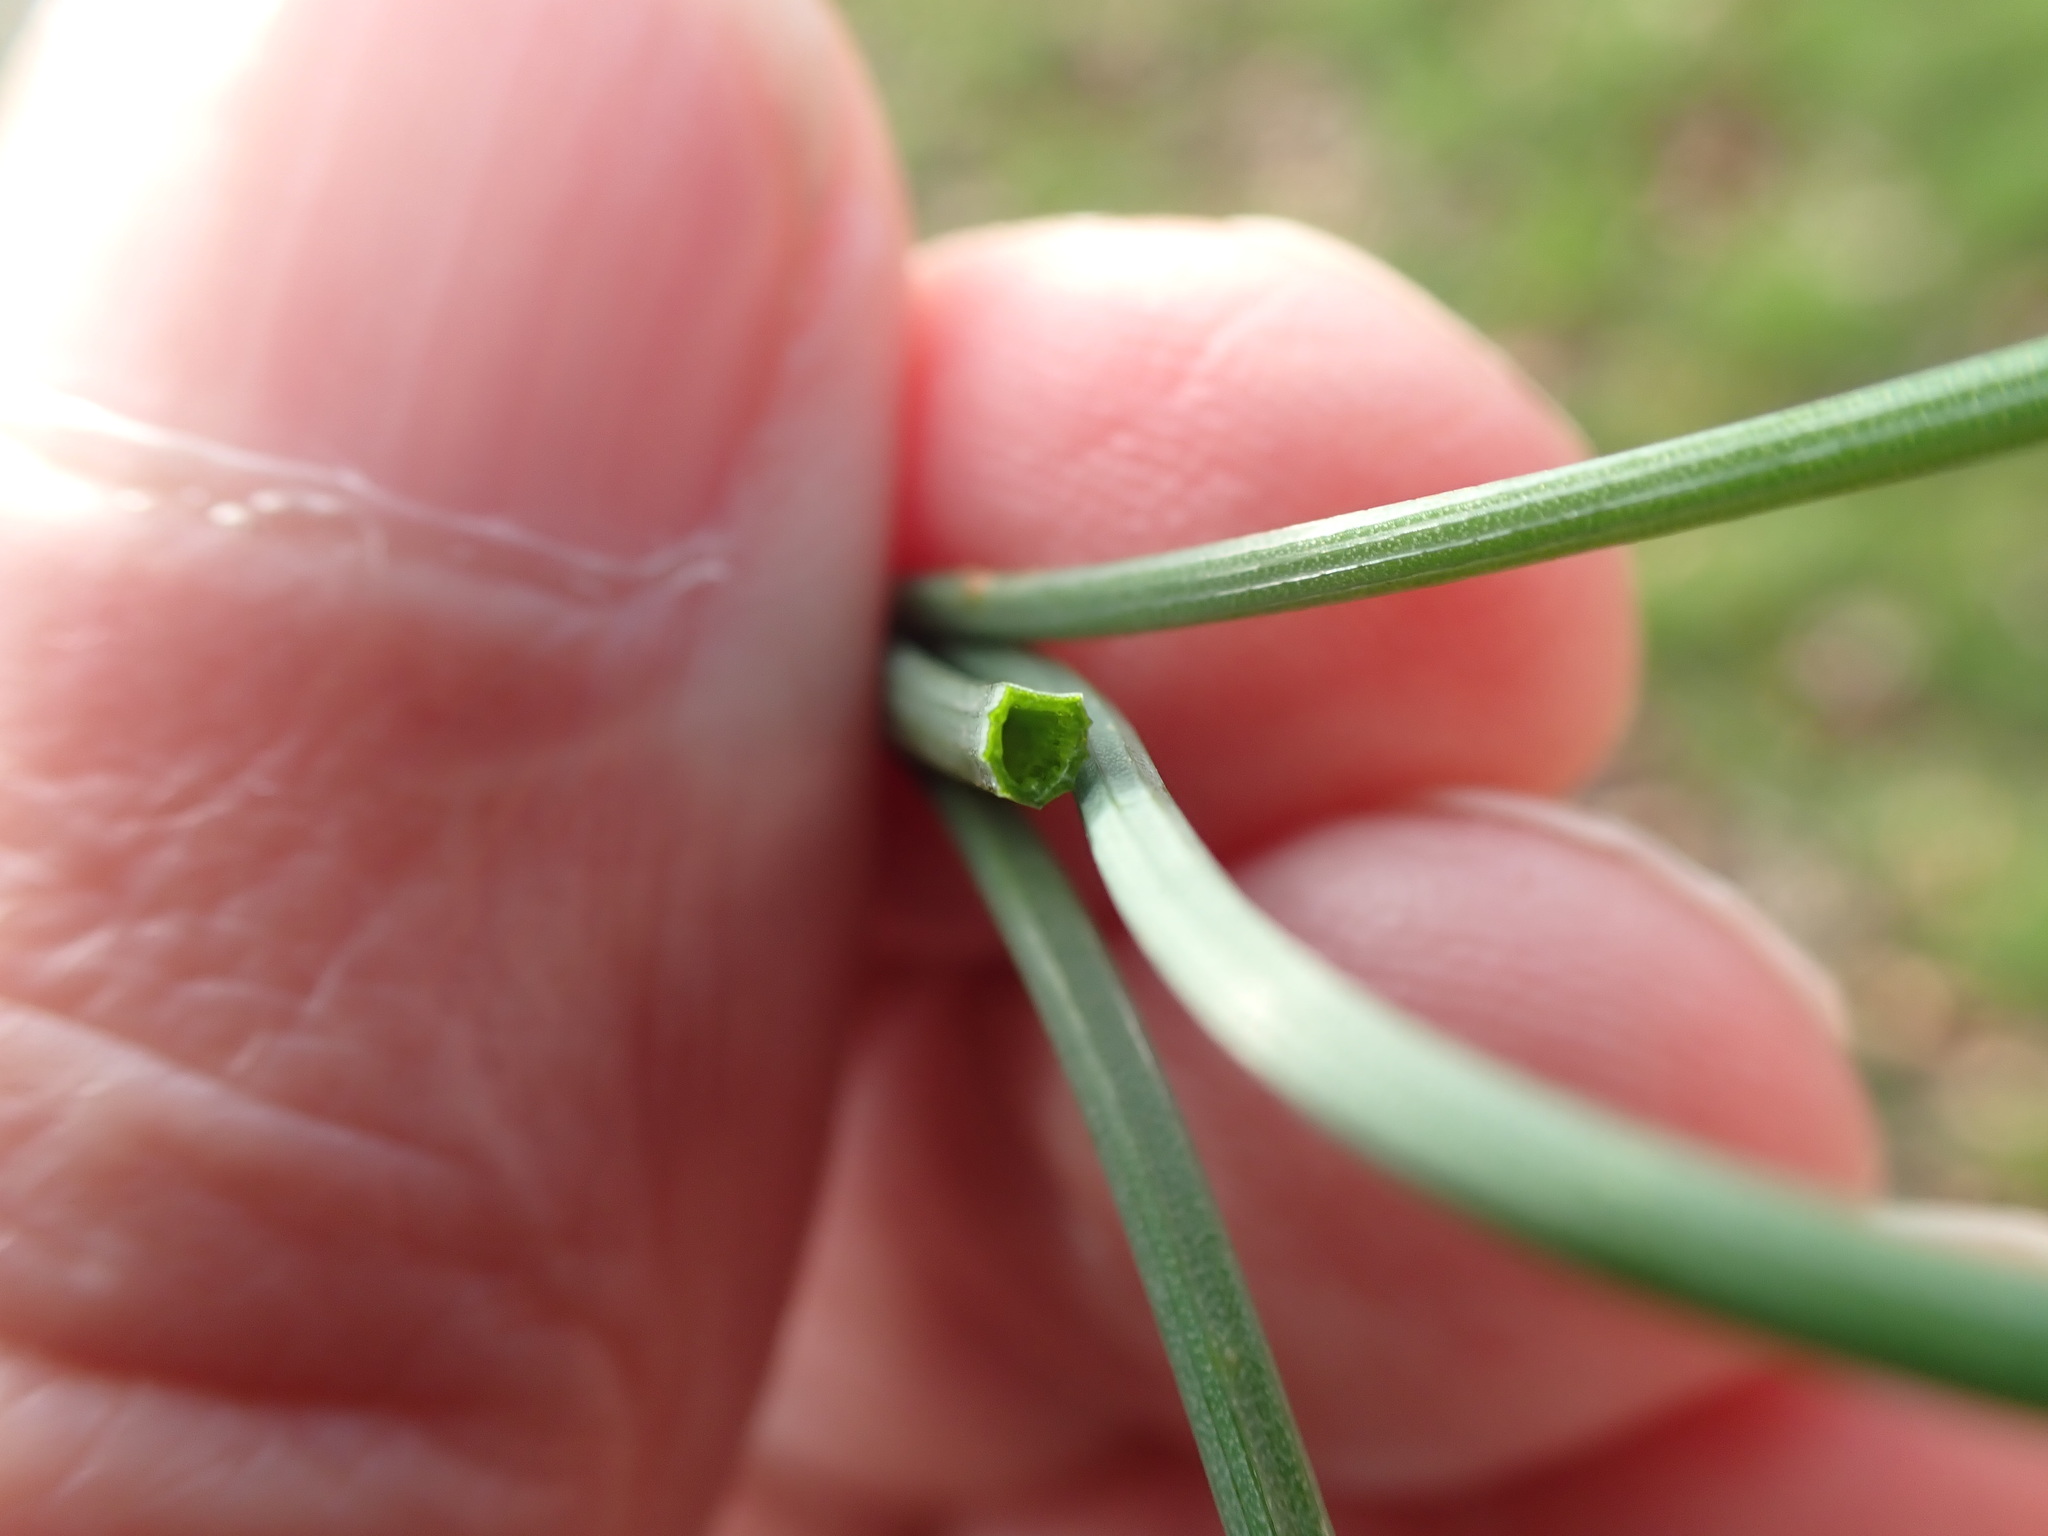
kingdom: Plantae
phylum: Tracheophyta
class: Liliopsida
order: Asparagales
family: Amaryllidaceae
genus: Allium
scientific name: Allium vineale
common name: Crow garlic
